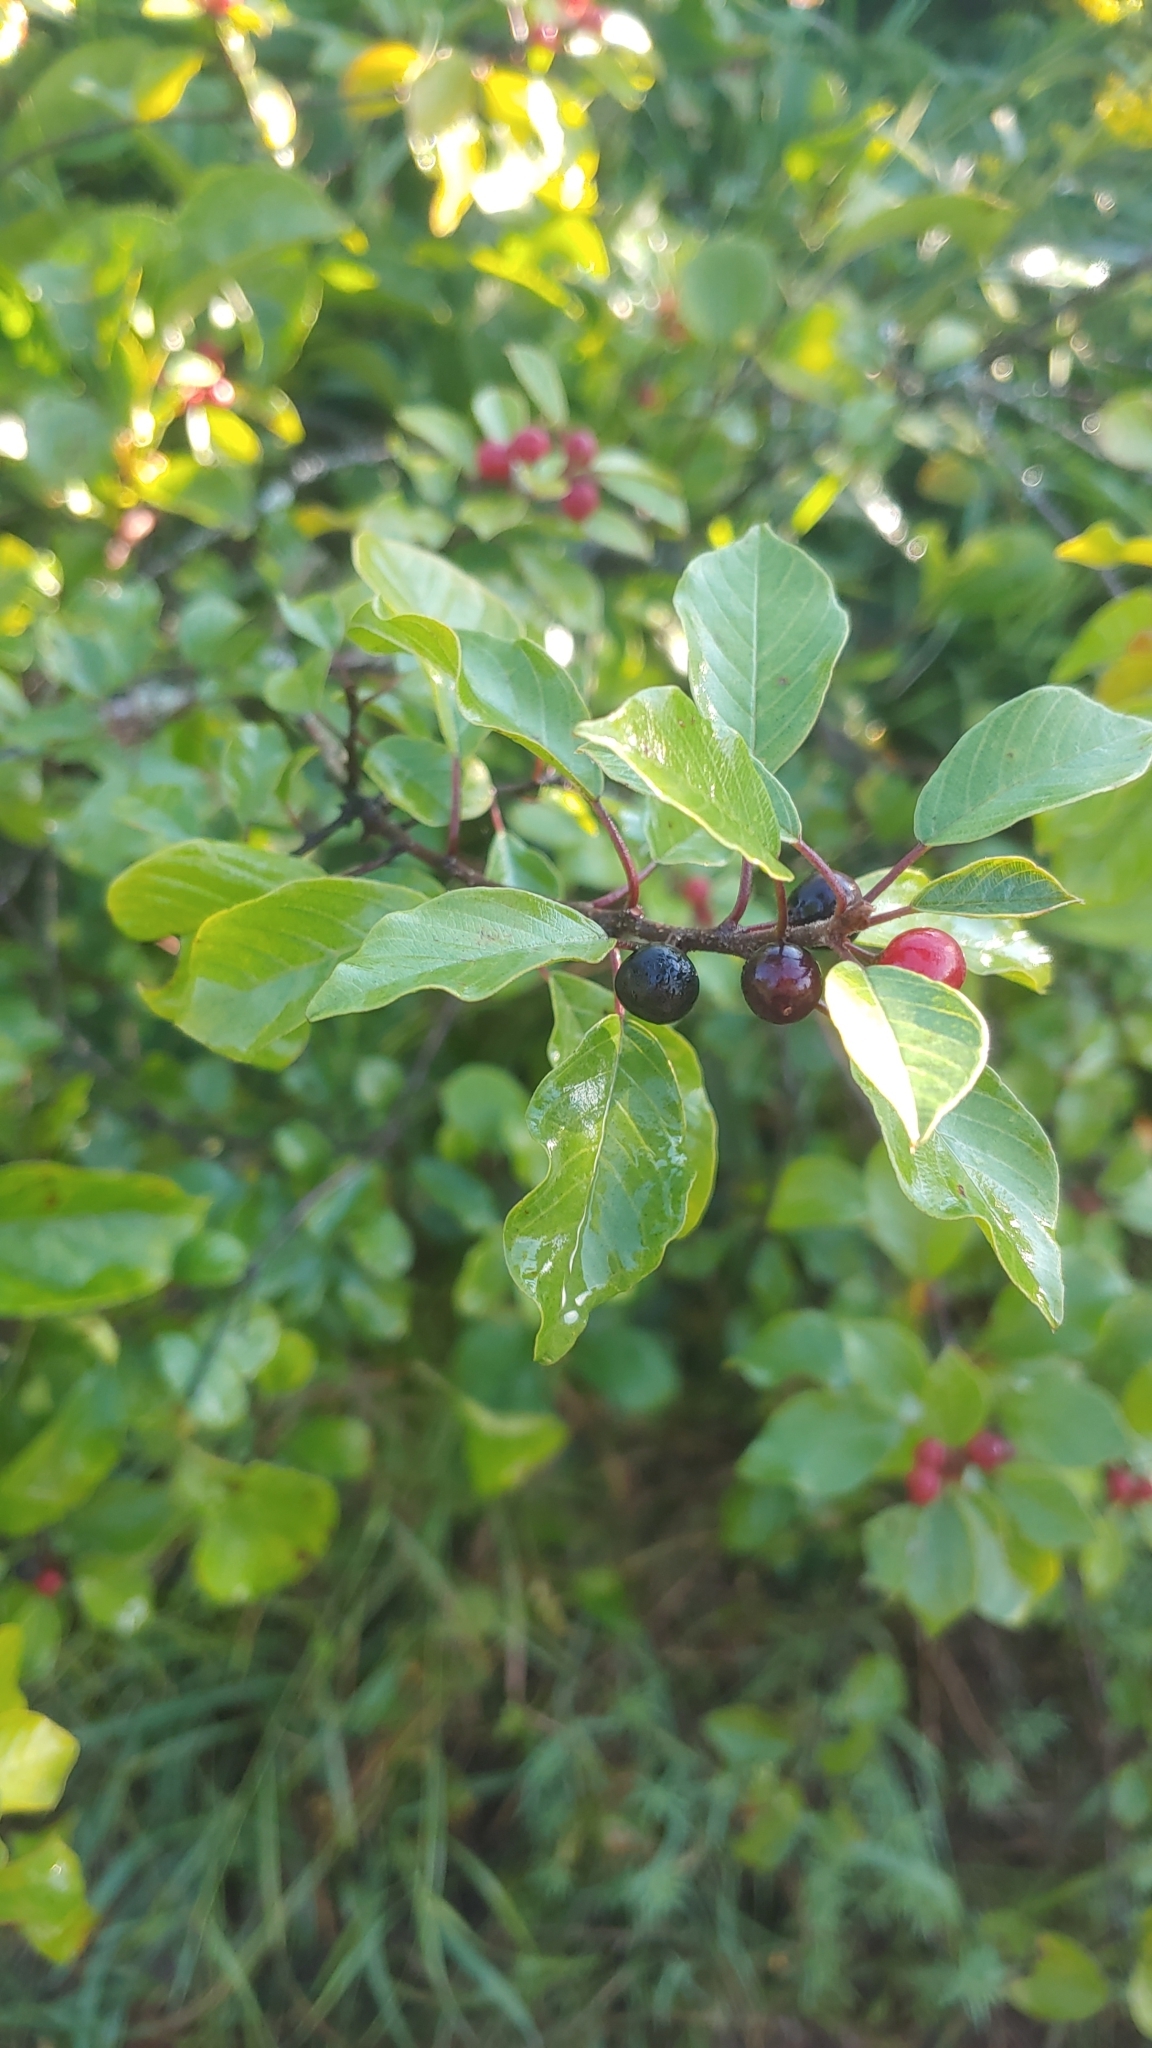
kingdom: Plantae
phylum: Tracheophyta
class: Magnoliopsida
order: Rosales
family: Rhamnaceae
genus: Frangula
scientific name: Frangula alnus
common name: Alder buckthorn
